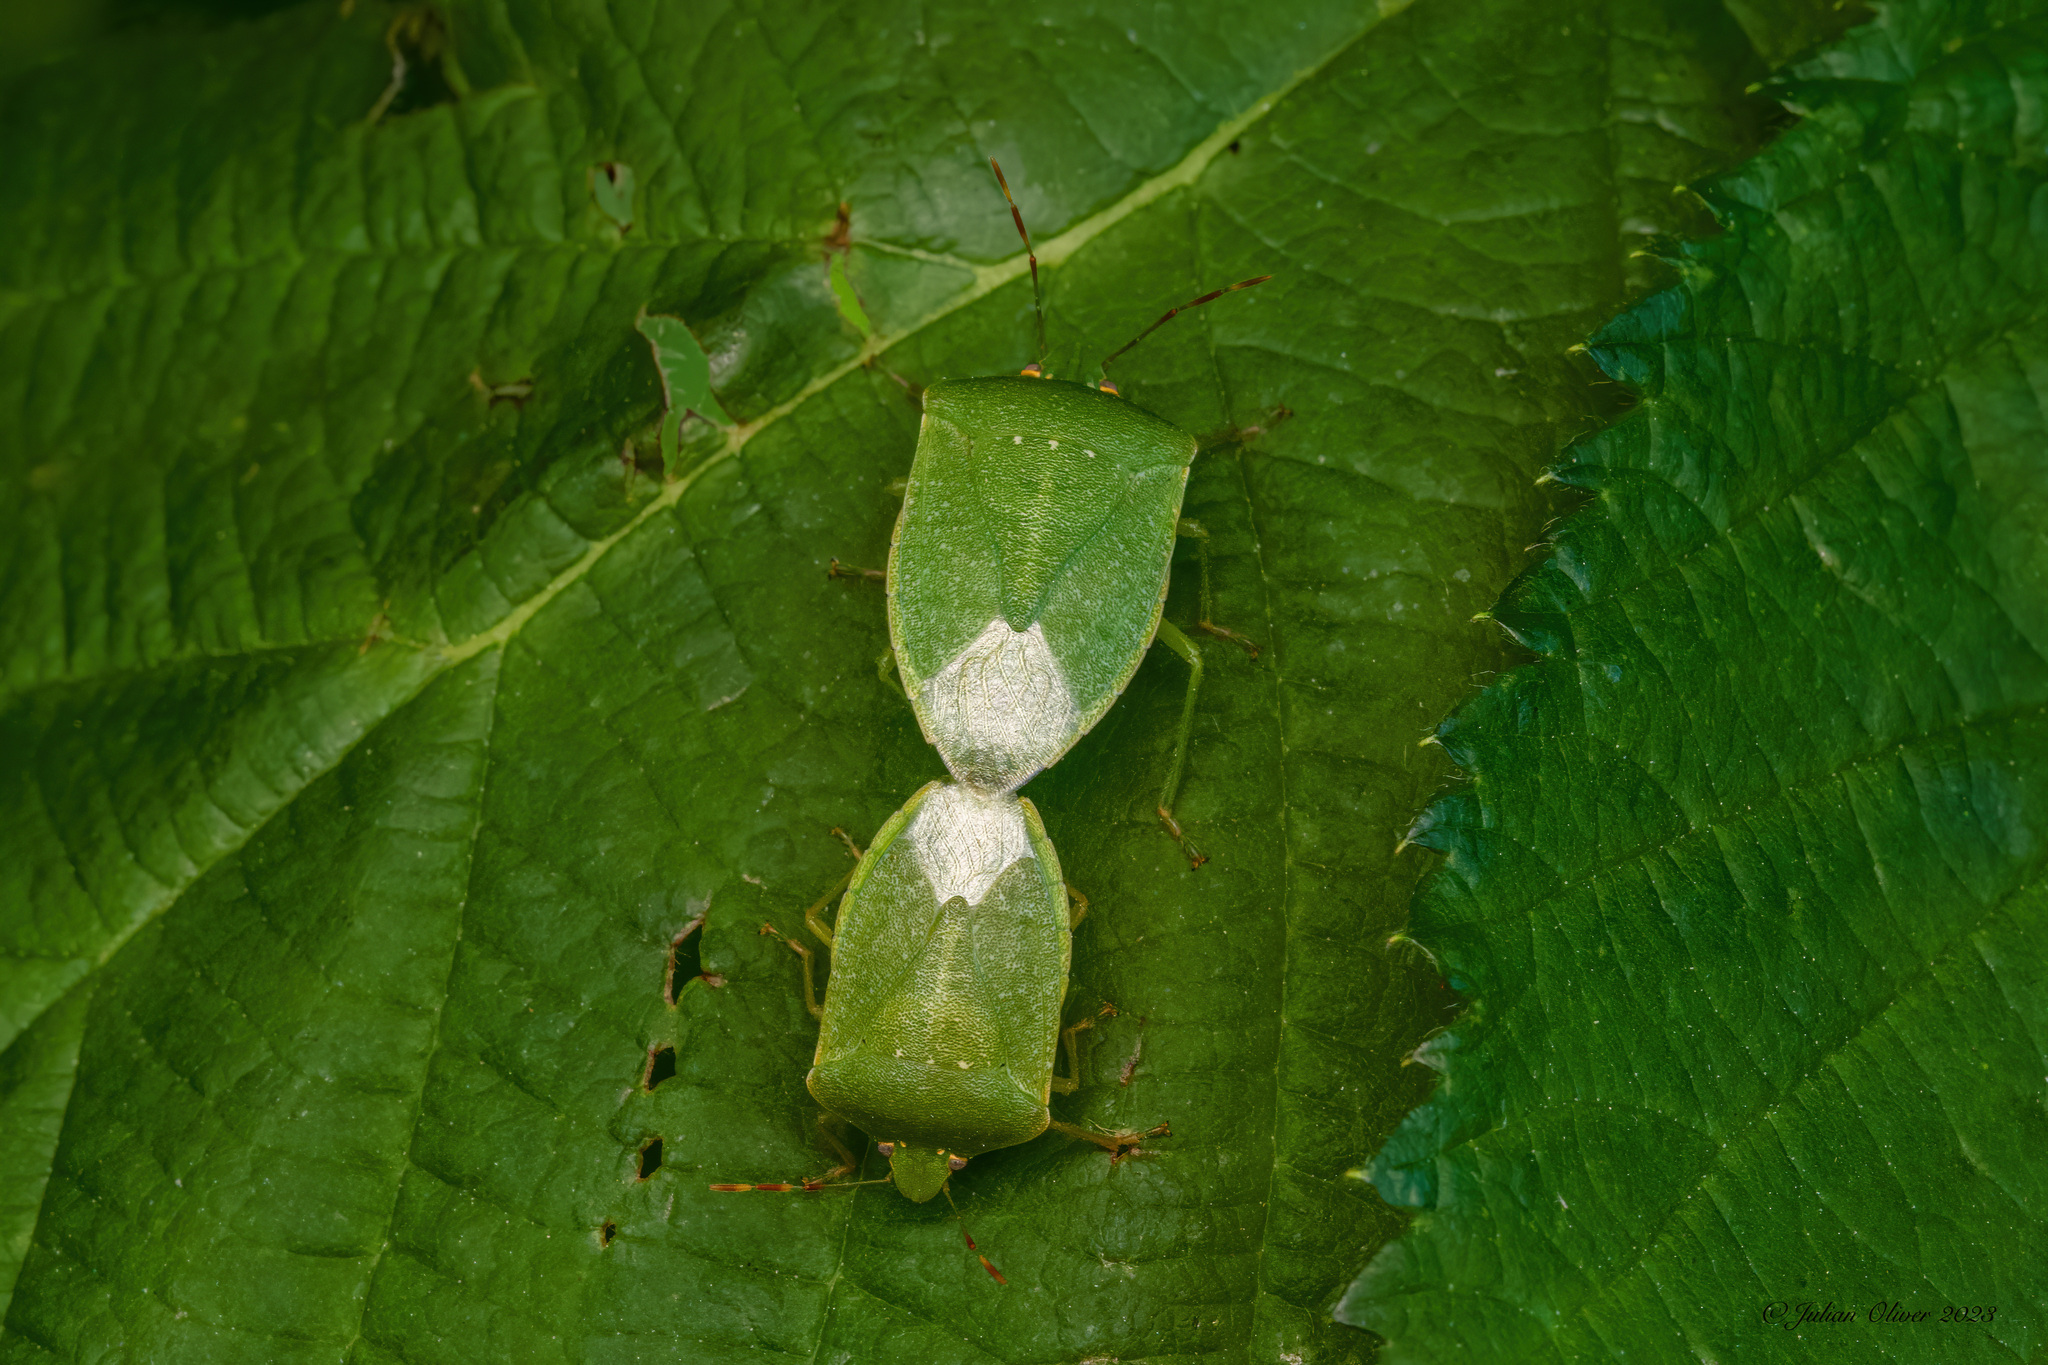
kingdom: Animalia
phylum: Arthropoda
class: Insecta
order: Hemiptera
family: Pentatomidae
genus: Nezara
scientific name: Nezara viridula
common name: Southern green stink bug
